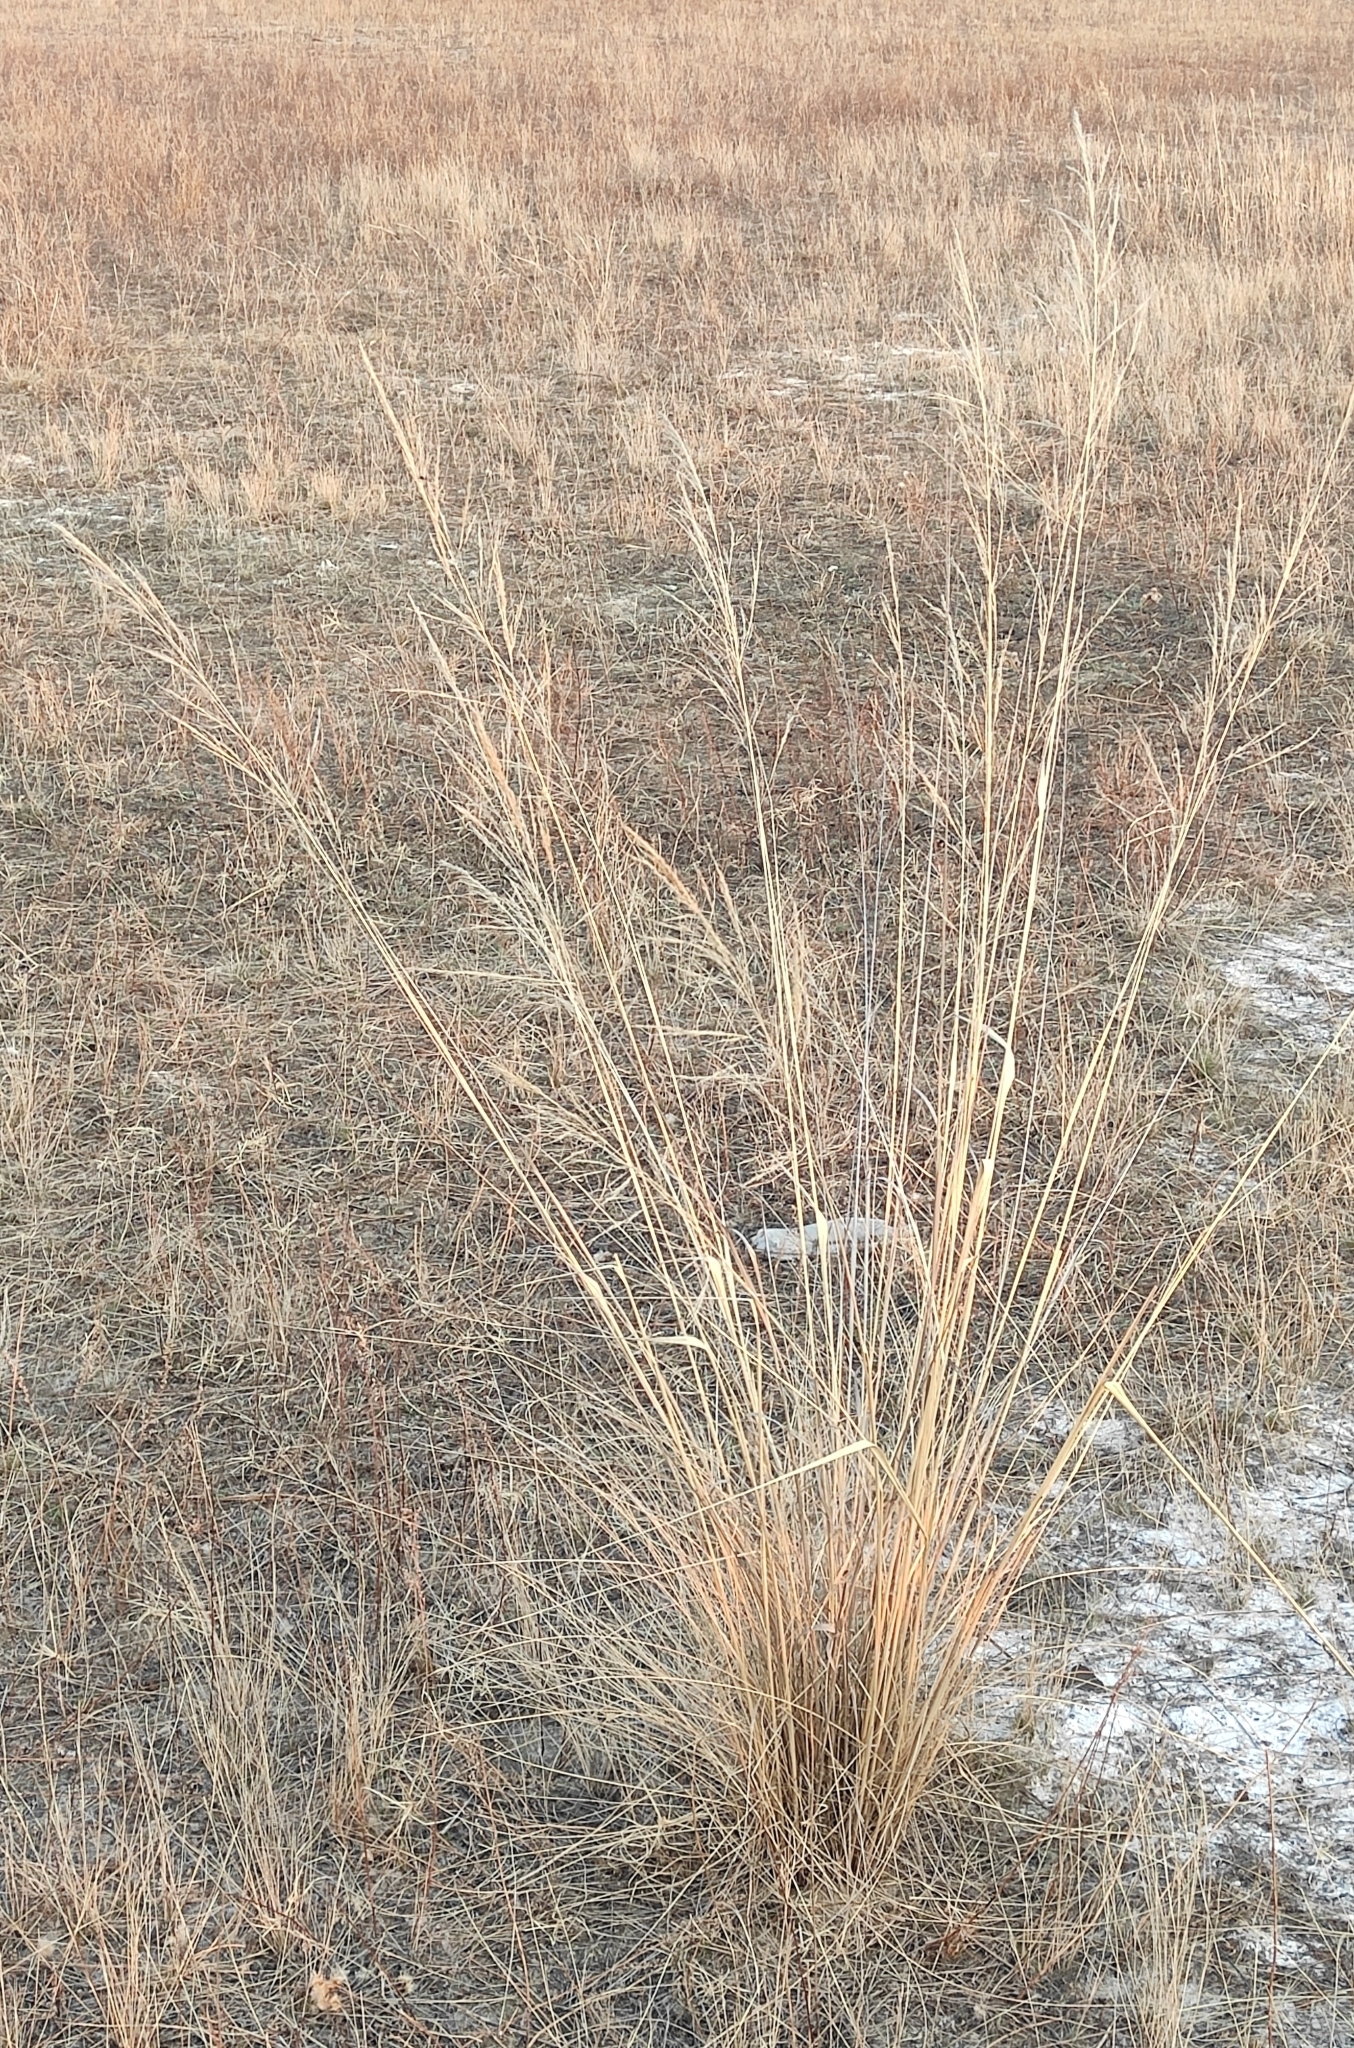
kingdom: Plantae
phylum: Tracheophyta
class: Liliopsida
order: Poales
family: Poaceae
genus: Neotrinia
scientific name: Neotrinia splendens
